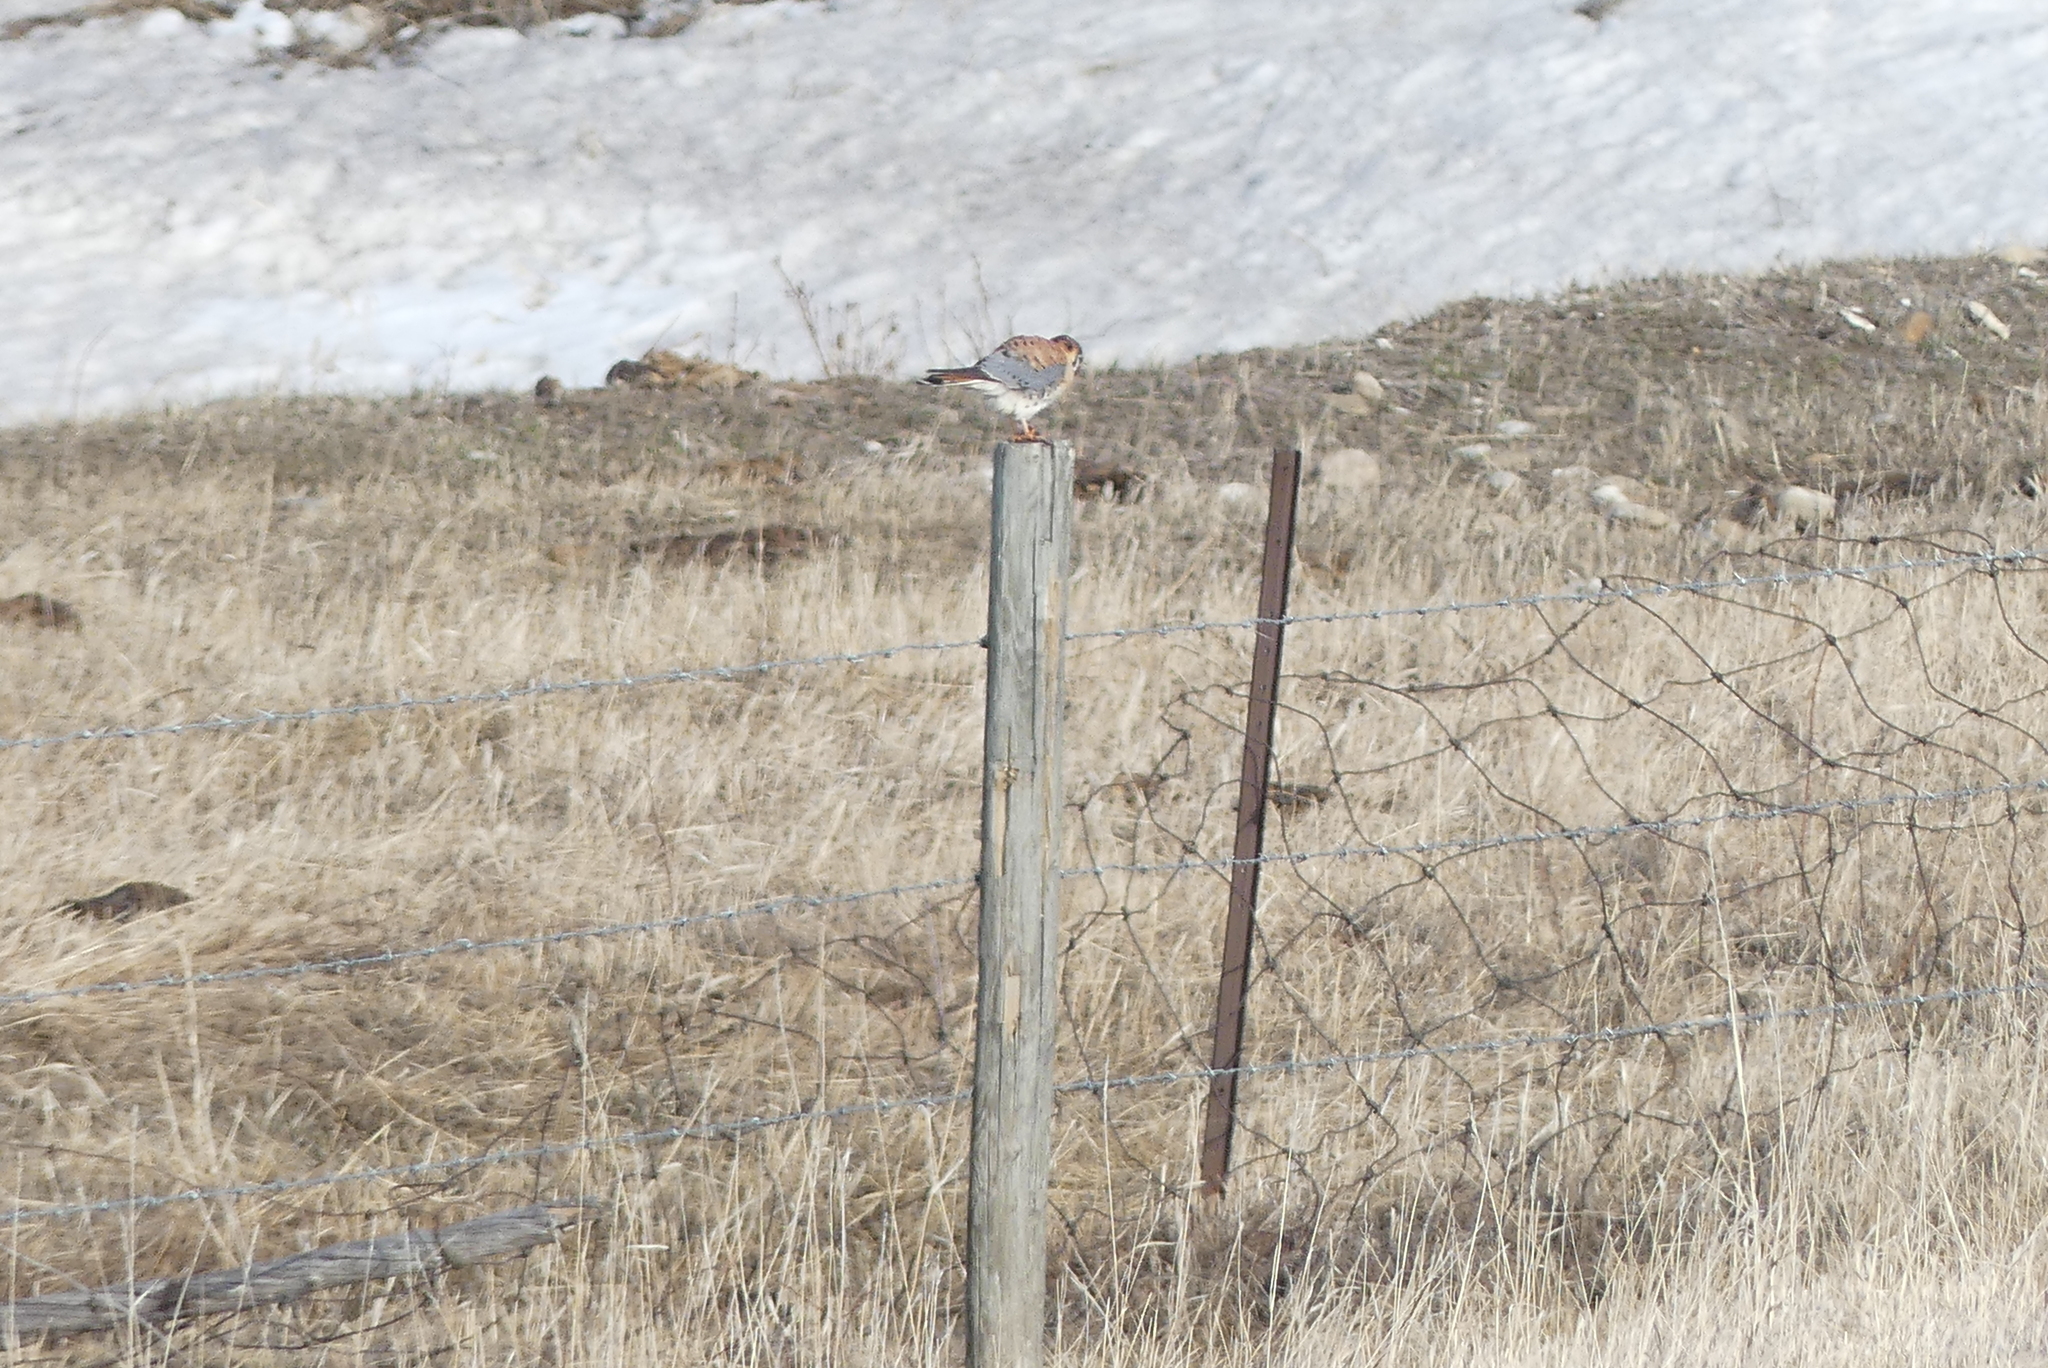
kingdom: Animalia
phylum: Chordata
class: Aves
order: Falconiformes
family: Falconidae
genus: Falco
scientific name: Falco sparverius
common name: American kestrel
